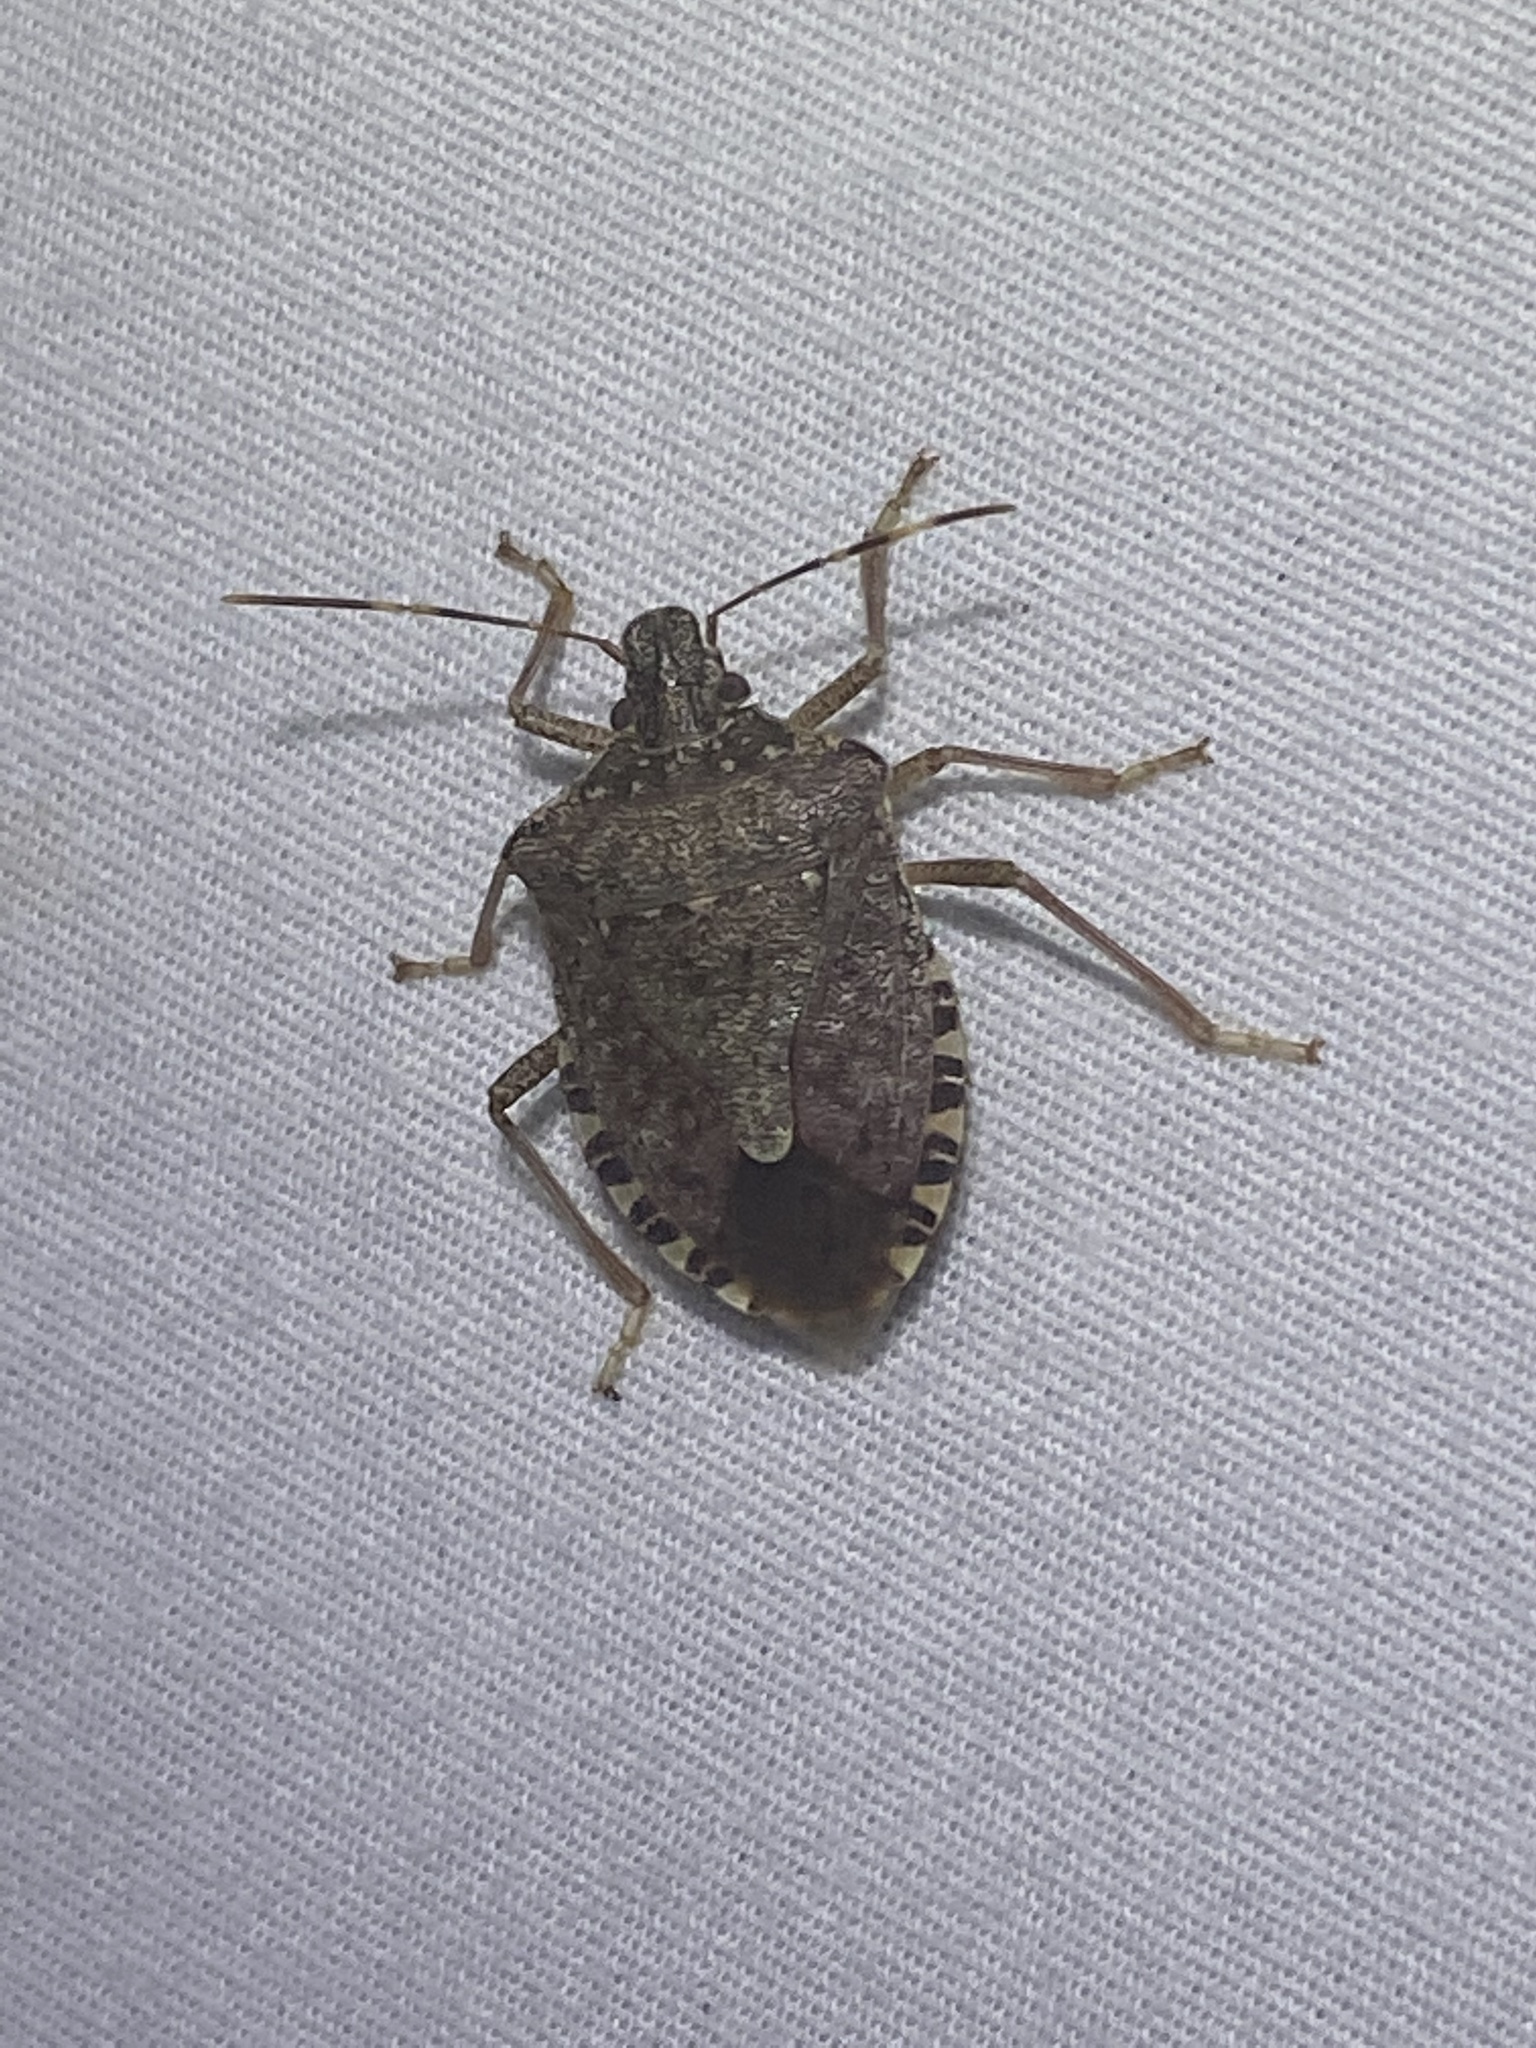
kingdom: Animalia
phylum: Arthropoda
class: Insecta
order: Hemiptera
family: Pentatomidae
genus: Halyomorpha
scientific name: Halyomorpha halys
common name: Brown marmorated stink bug
